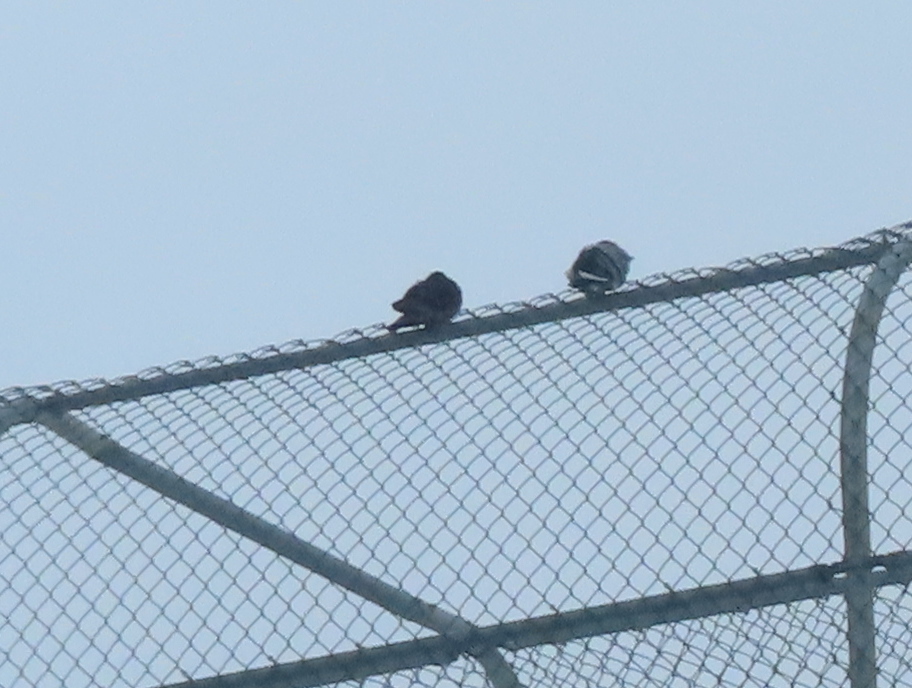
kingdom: Animalia
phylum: Chordata
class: Aves
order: Columbiformes
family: Columbidae
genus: Columba
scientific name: Columba livia
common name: Rock pigeon
